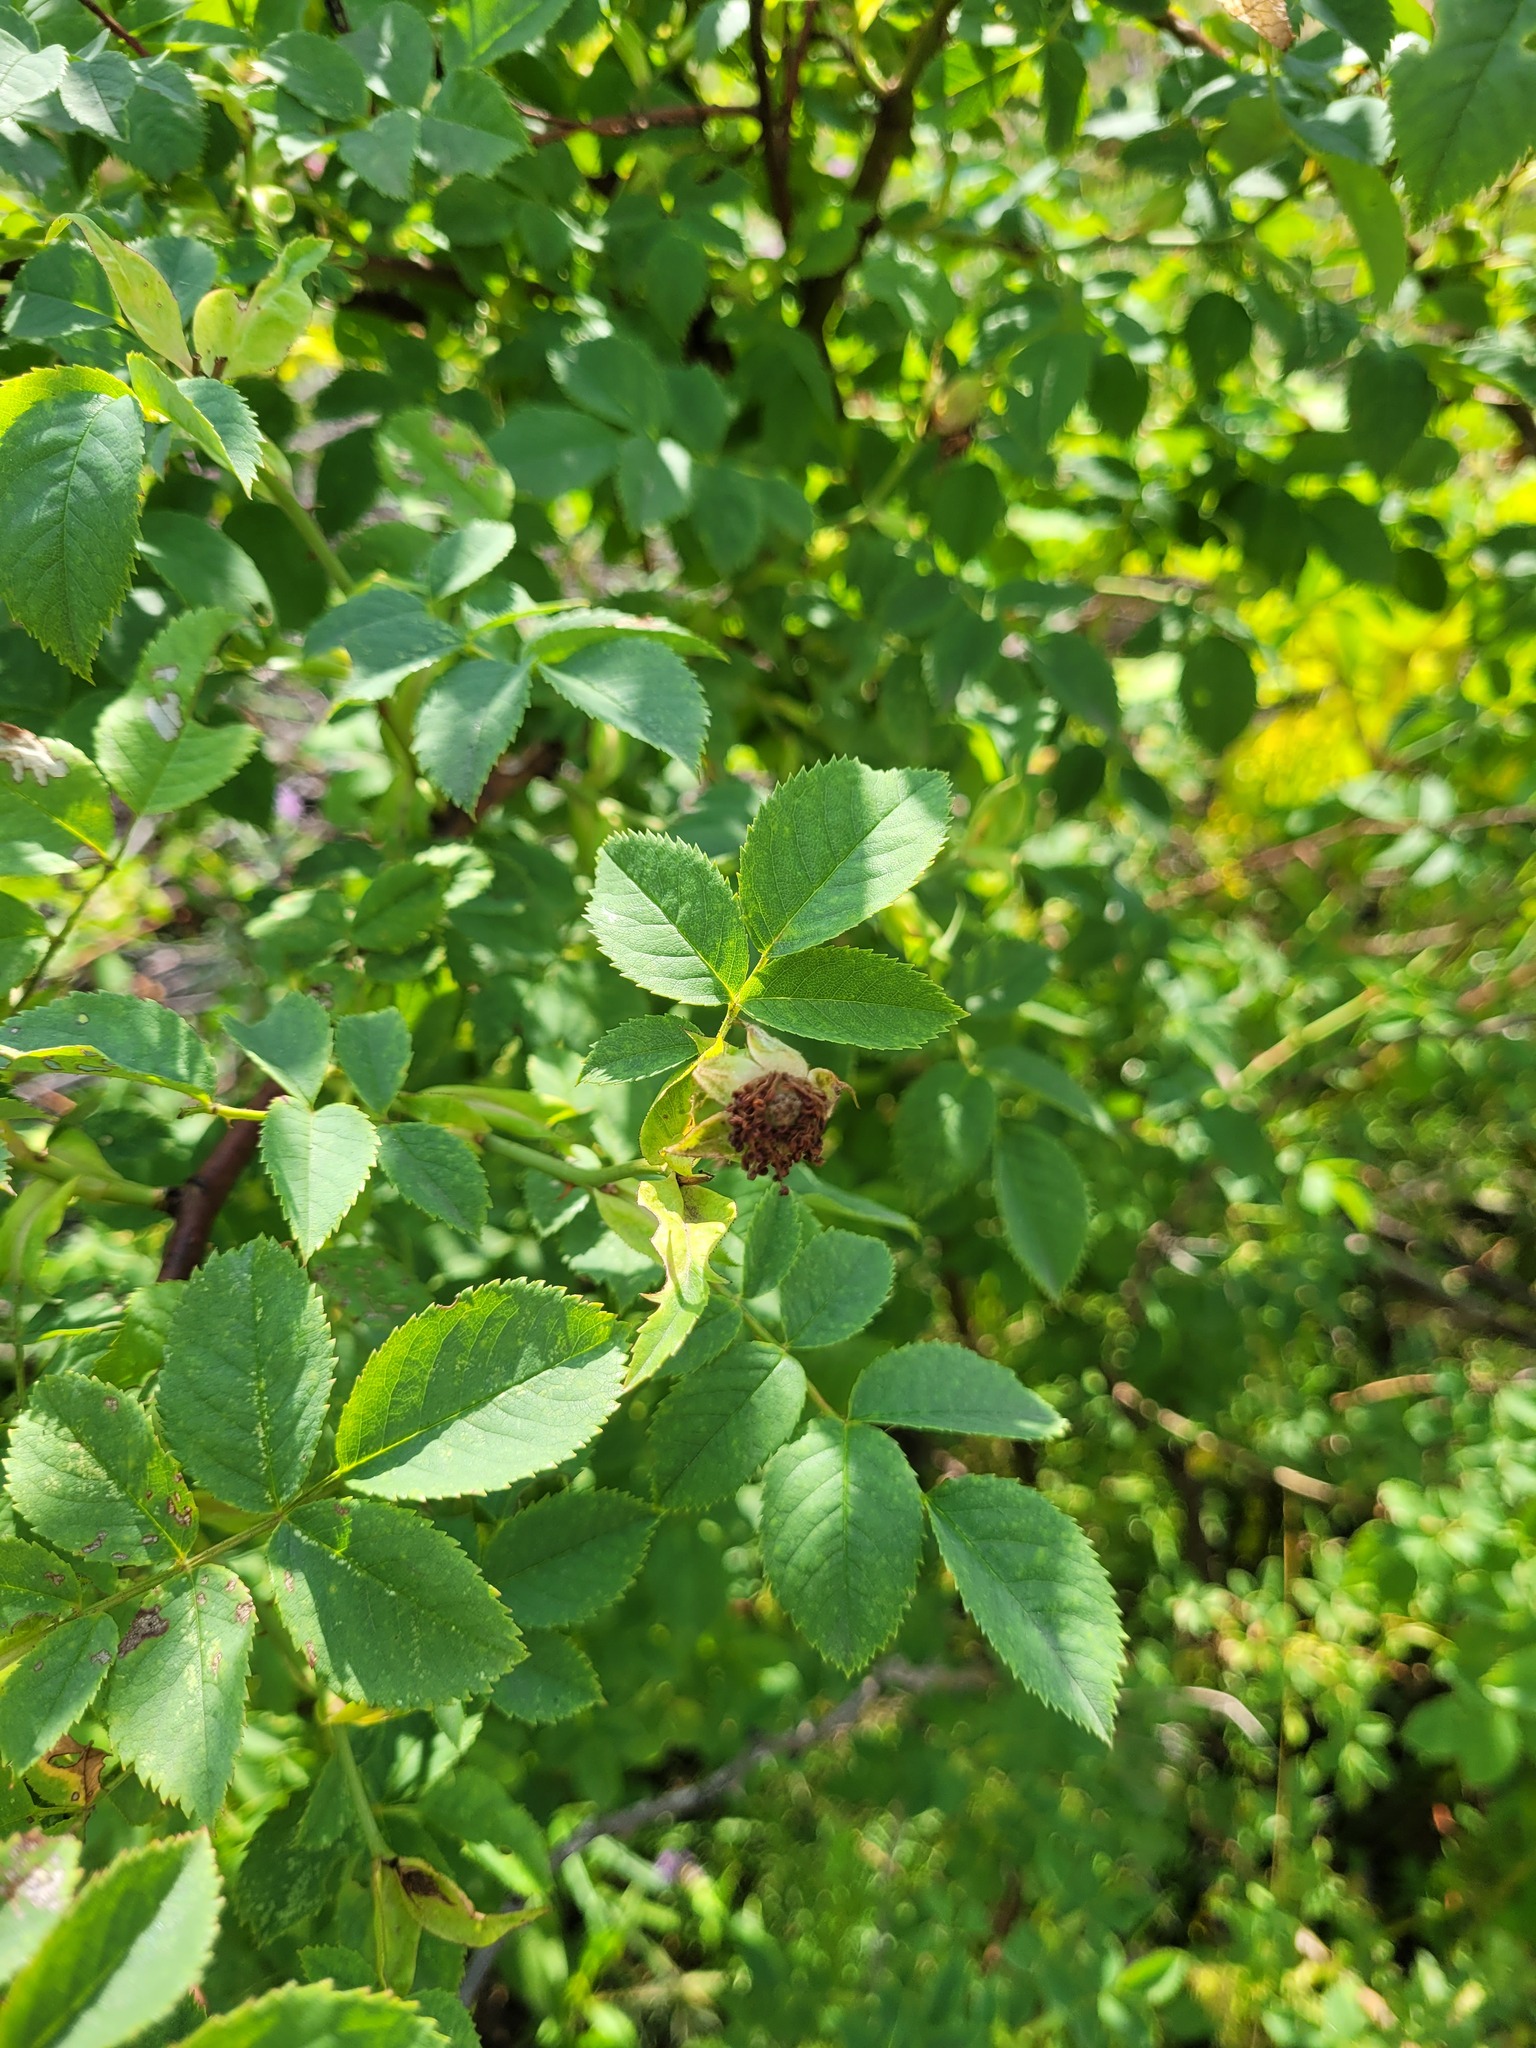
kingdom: Plantae
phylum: Tracheophyta
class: Magnoliopsida
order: Rosales
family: Rosaceae
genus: Rosa
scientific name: Rosa canina
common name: Dog rose
